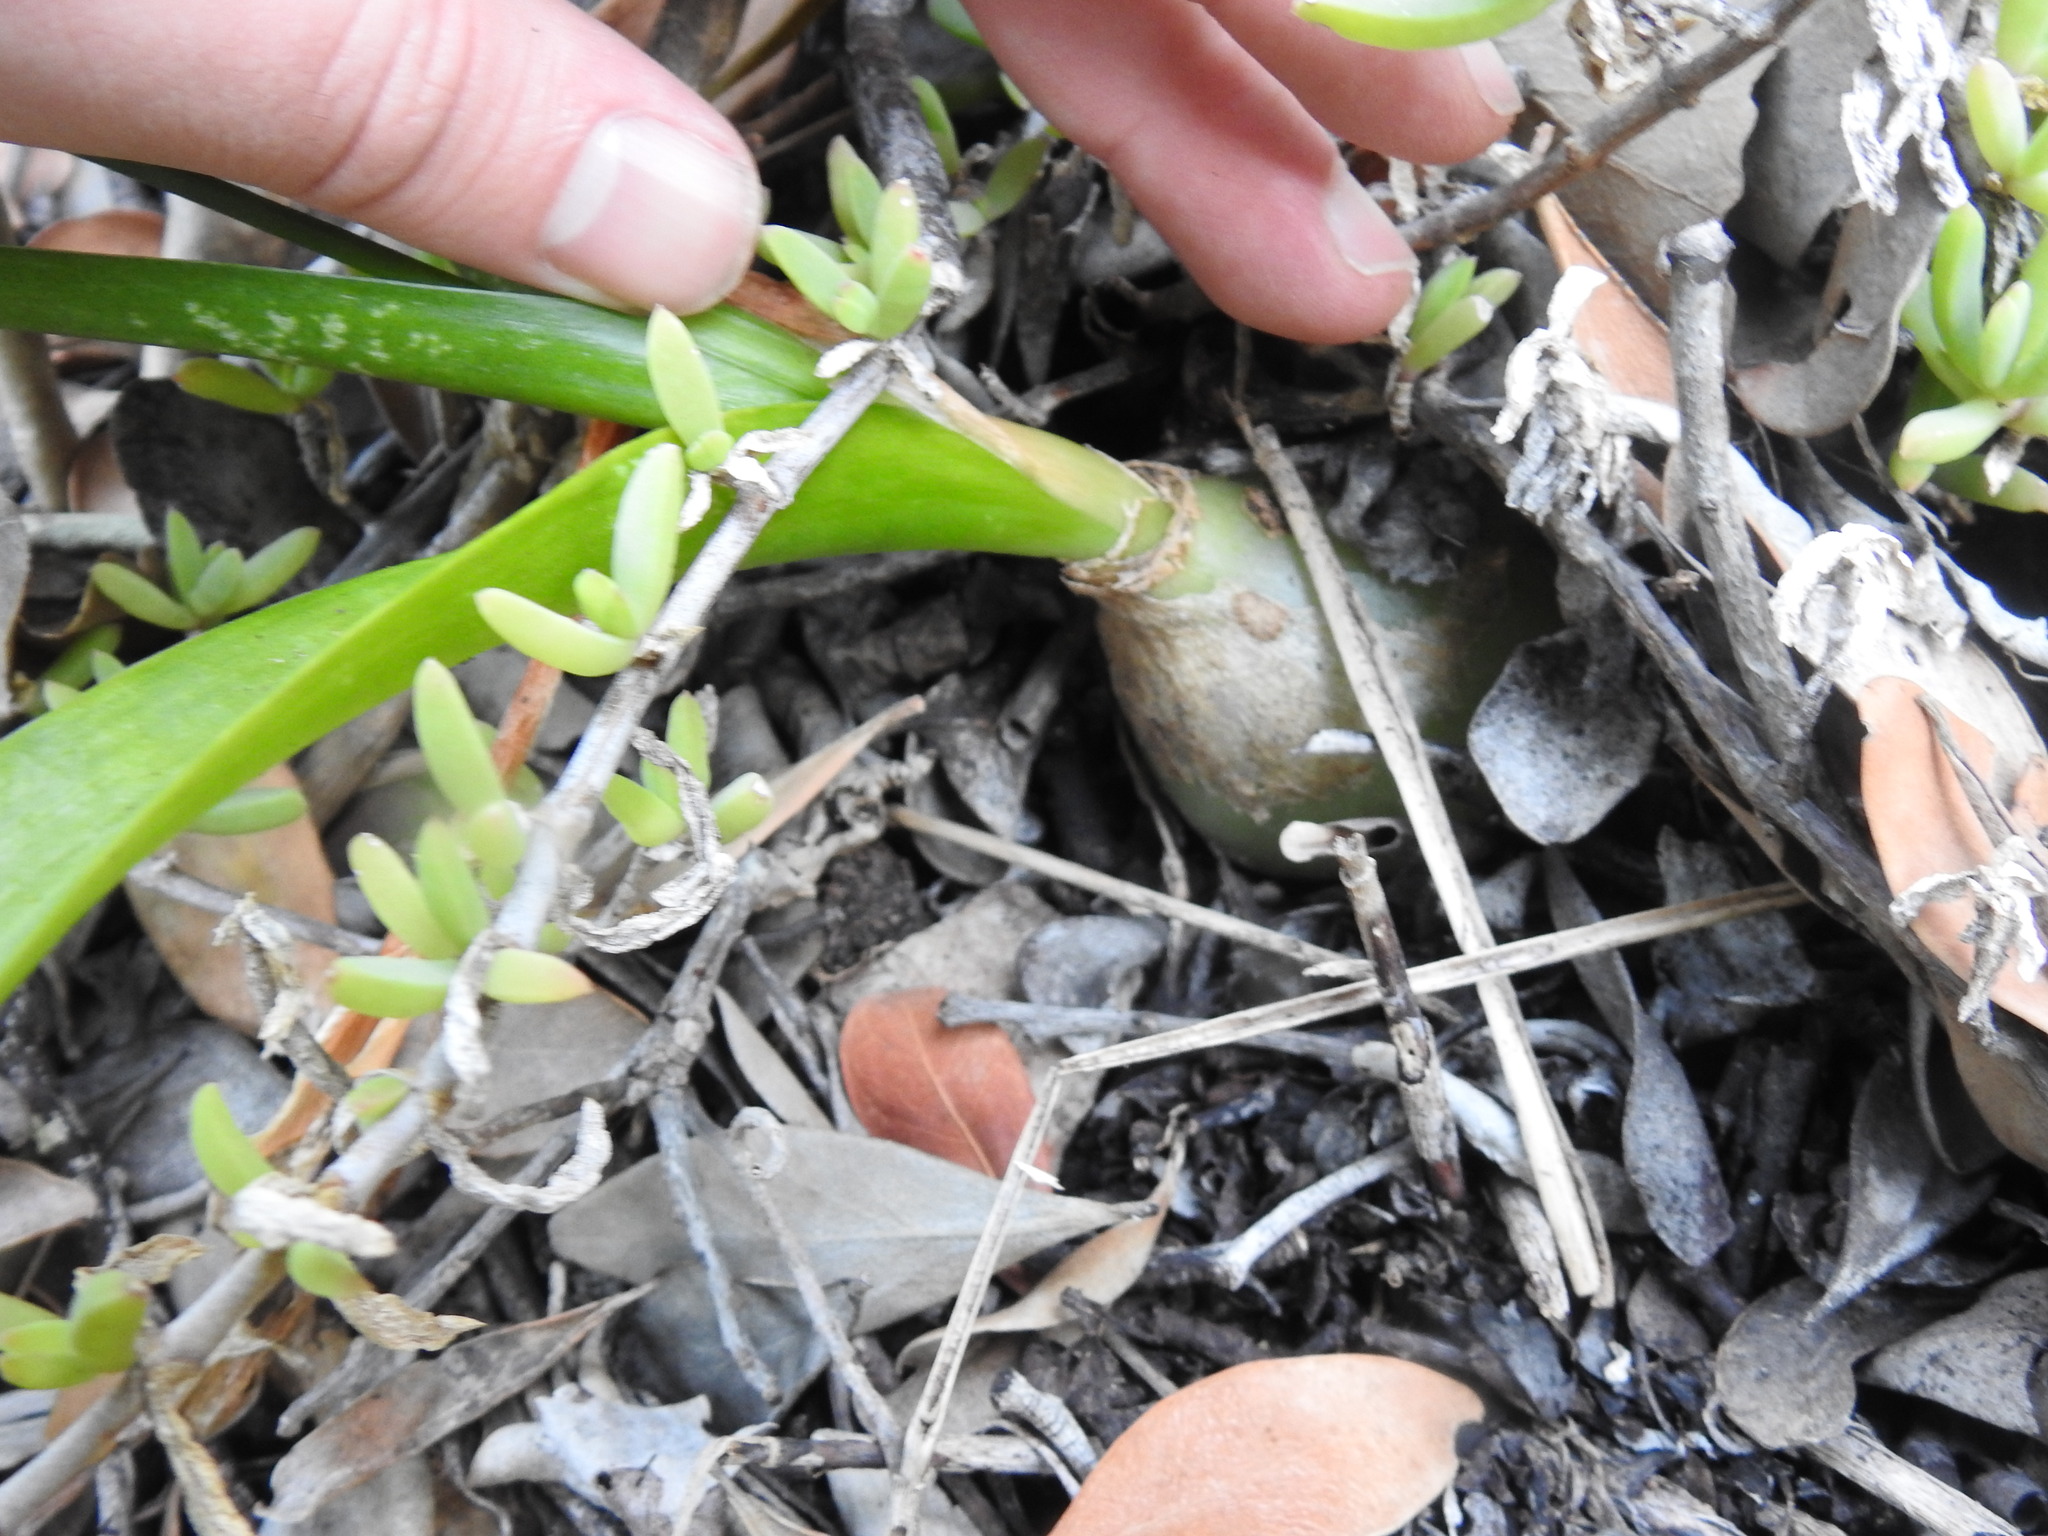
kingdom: Plantae
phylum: Tracheophyta
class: Liliopsida
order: Asparagales
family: Asparagaceae
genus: Albuca
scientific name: Albuca bracteata
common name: Sea-onion
